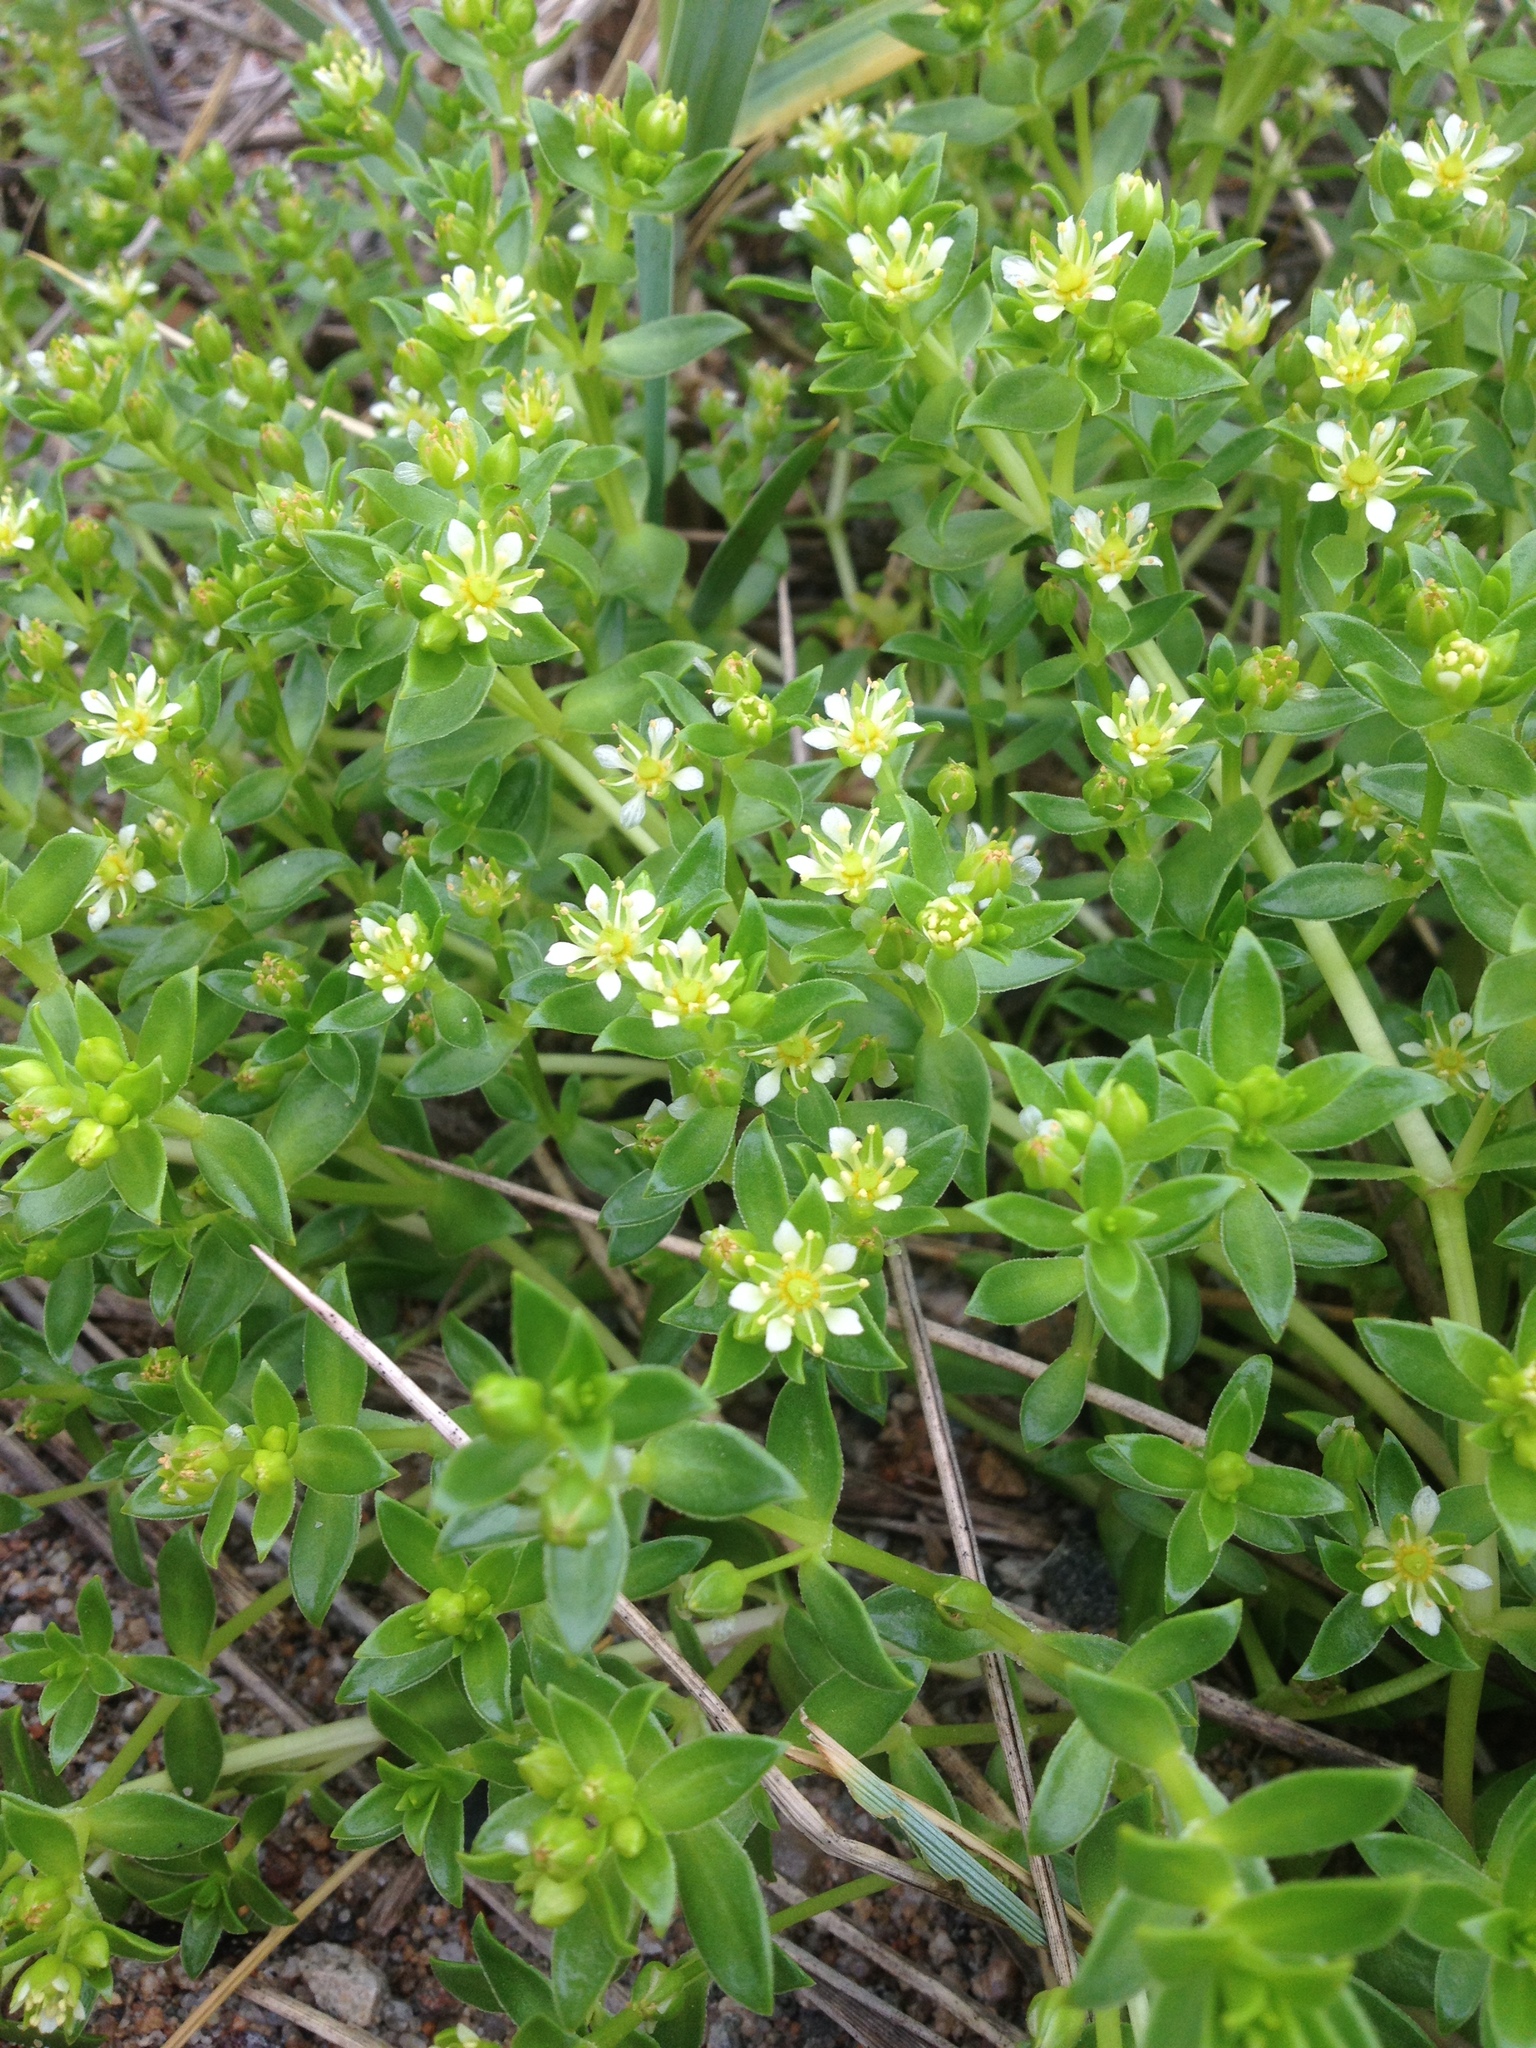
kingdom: Plantae
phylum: Tracheophyta
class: Magnoliopsida
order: Caryophyllales
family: Caryophyllaceae
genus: Honckenya
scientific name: Honckenya peploides
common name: Sea sandwort
